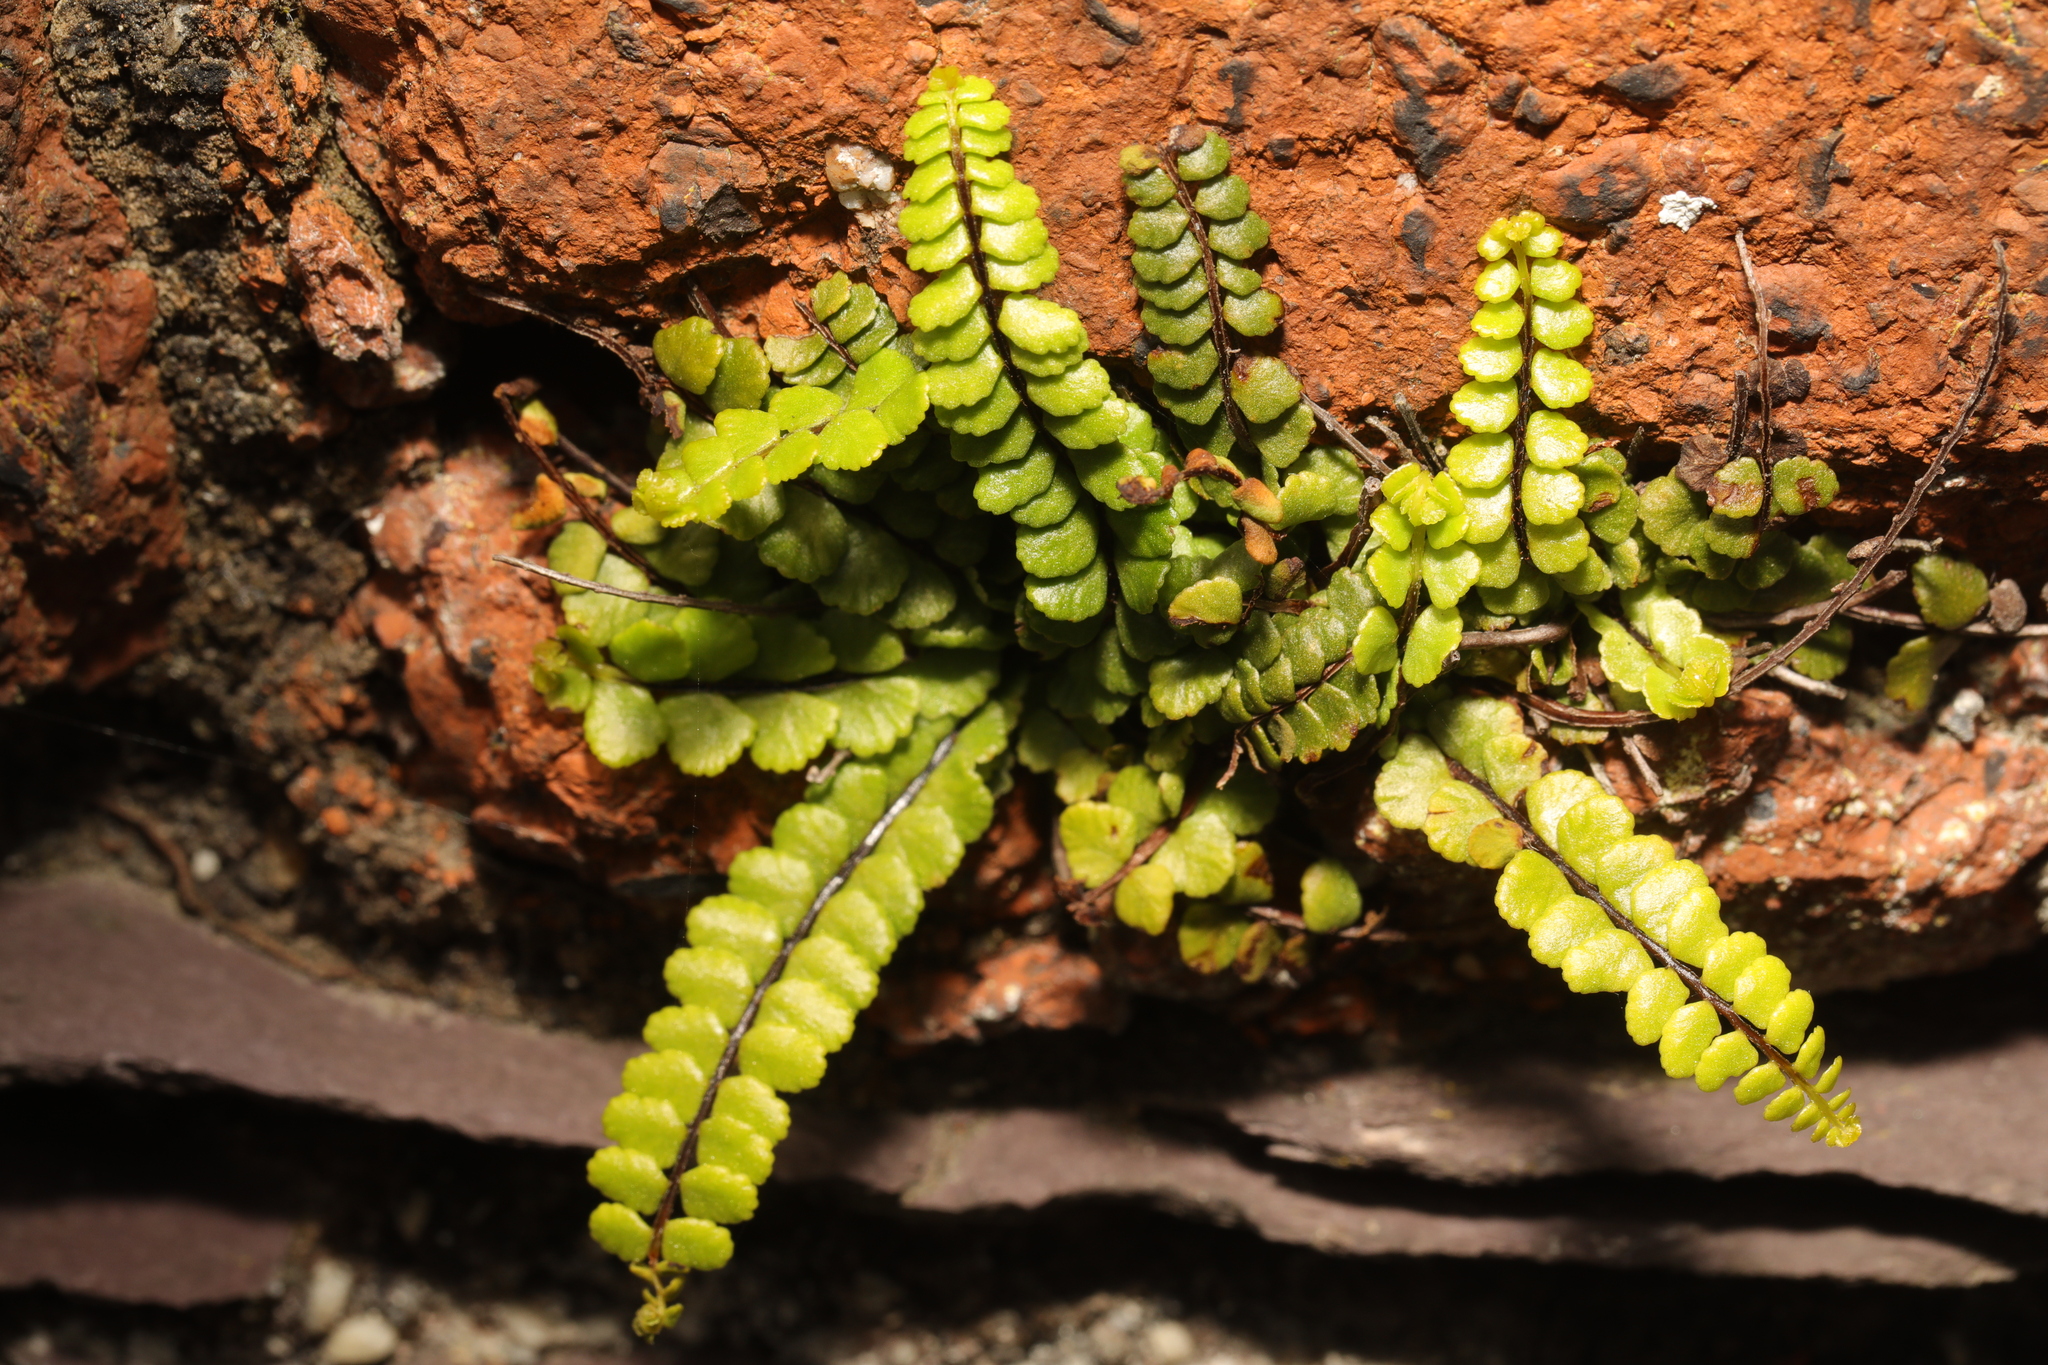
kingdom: Plantae
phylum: Tracheophyta
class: Polypodiopsida
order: Polypodiales
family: Aspleniaceae
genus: Asplenium
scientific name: Asplenium trichomanes
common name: Maidenhair spleenwort
